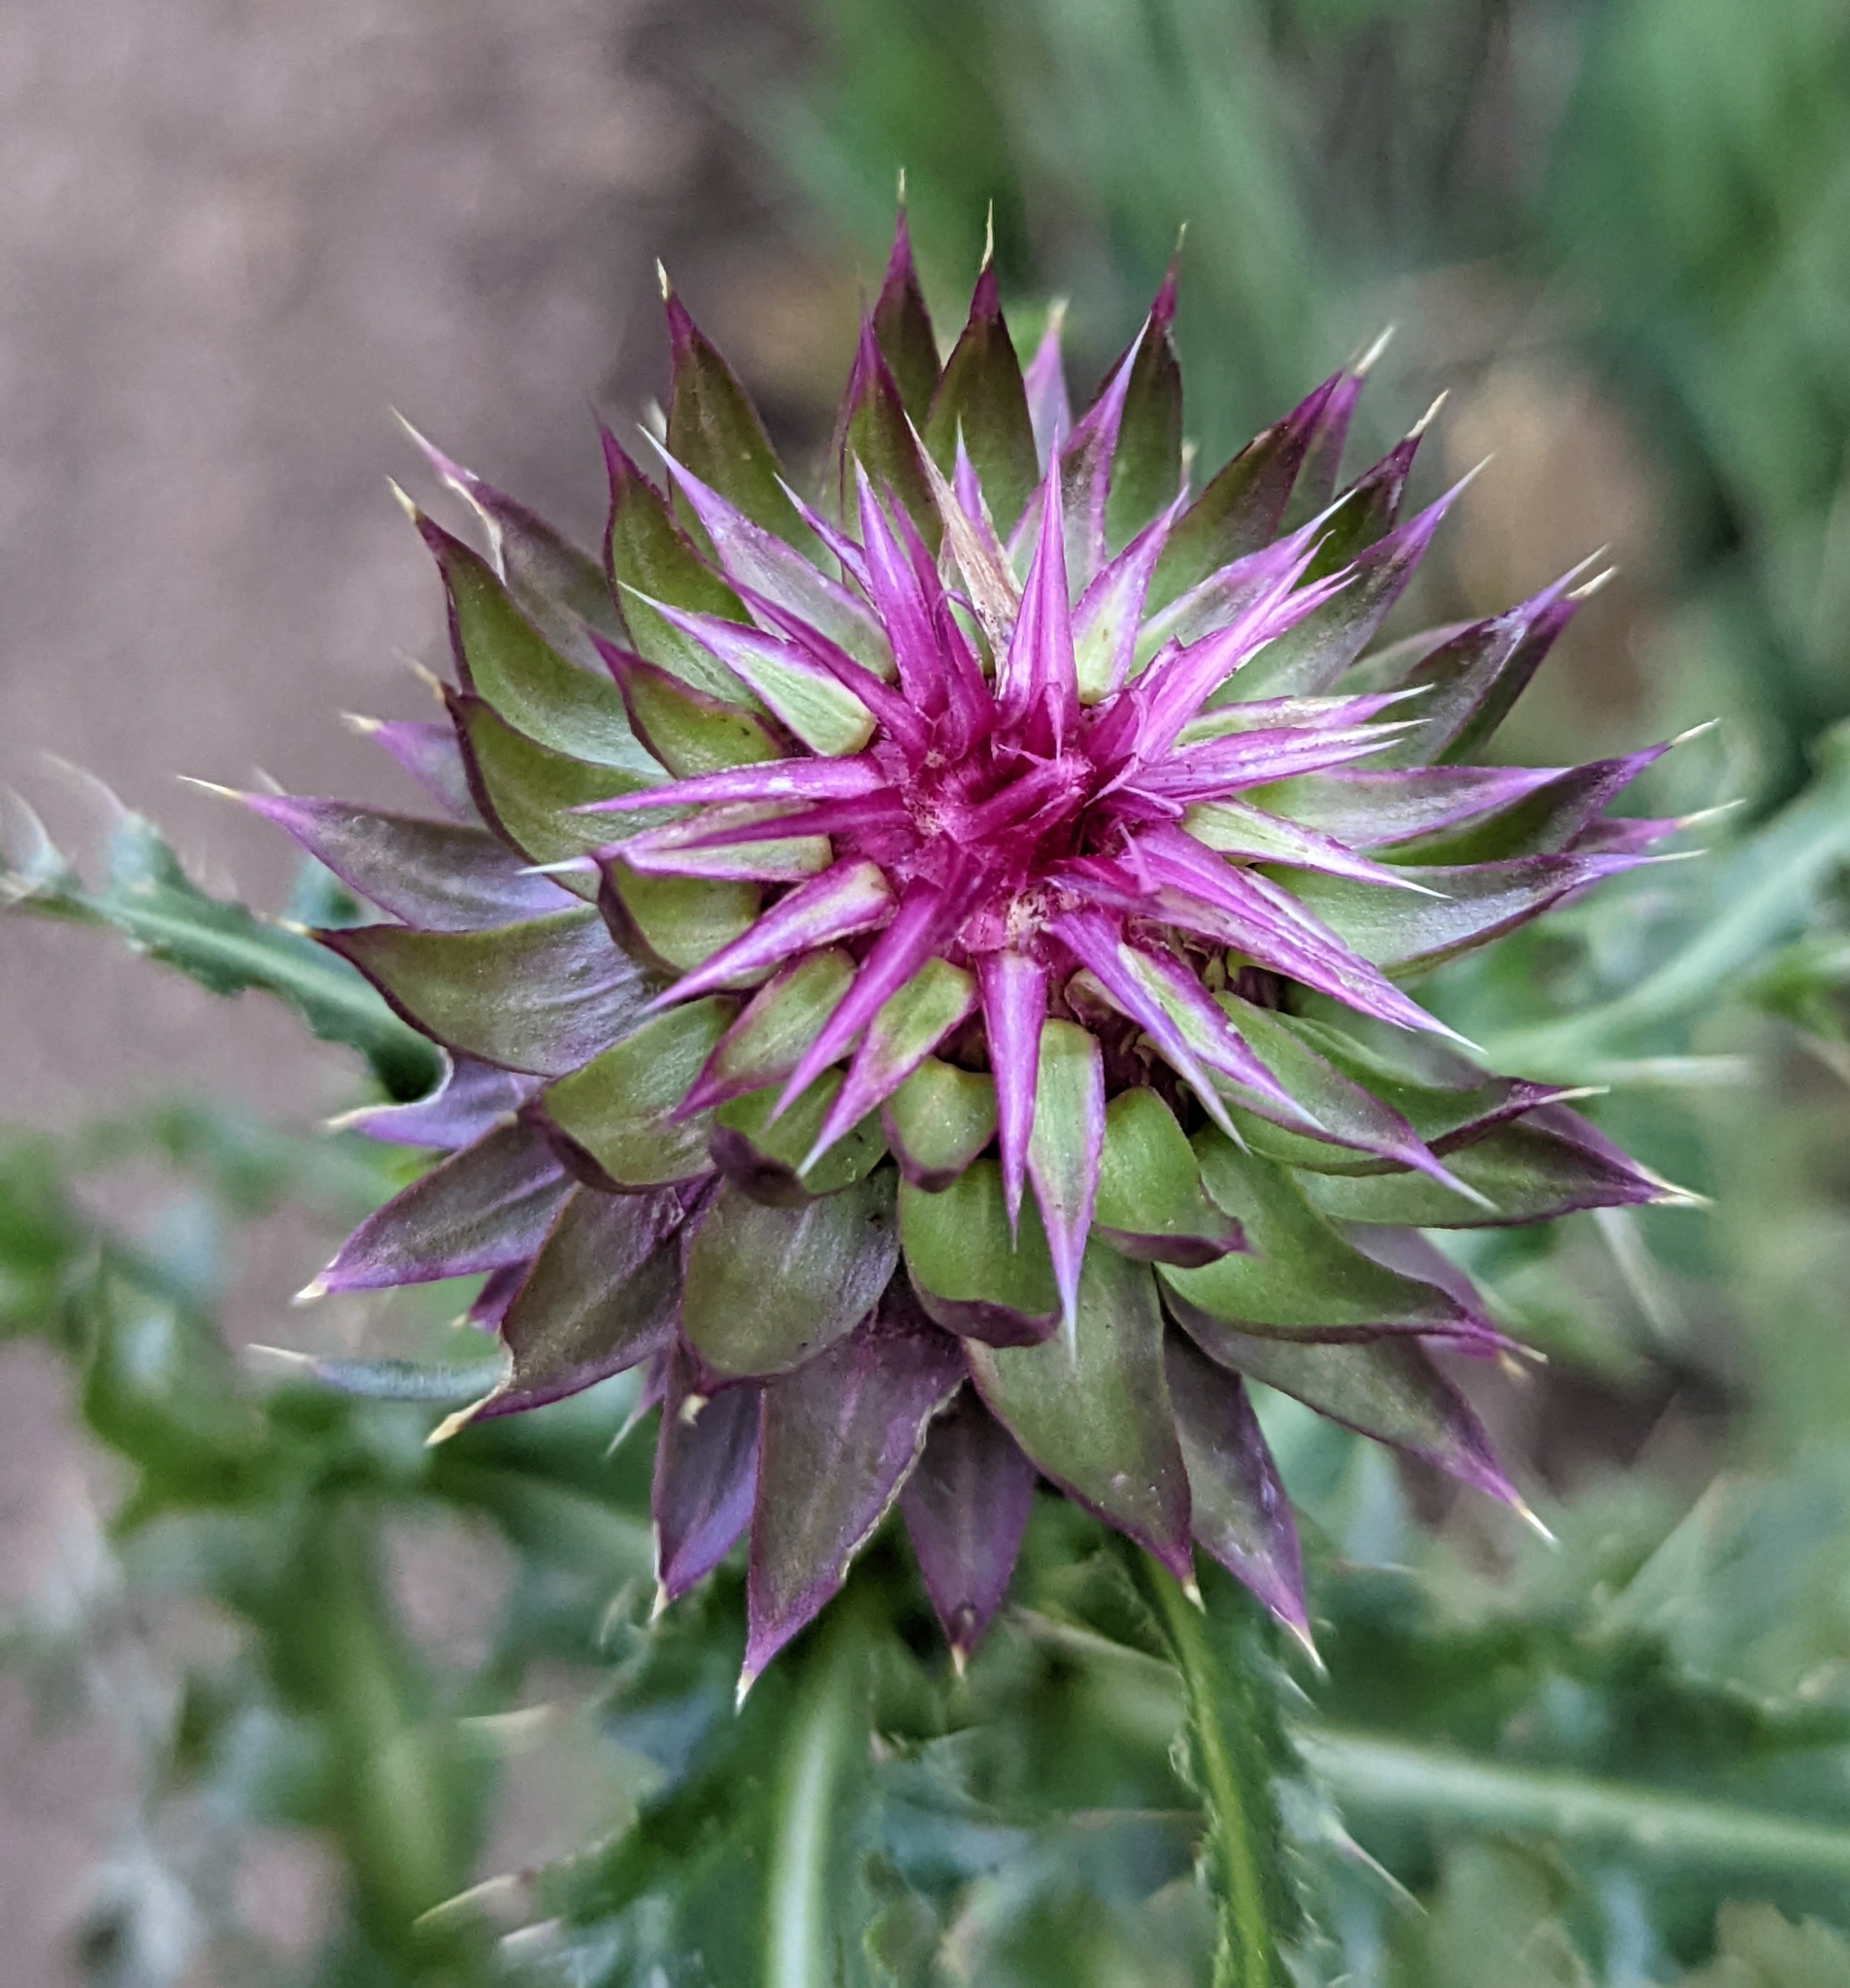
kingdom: Plantae
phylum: Tracheophyta
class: Magnoliopsida
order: Asterales
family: Asteraceae
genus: Carduus
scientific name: Carduus nutans
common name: Musk thistle
